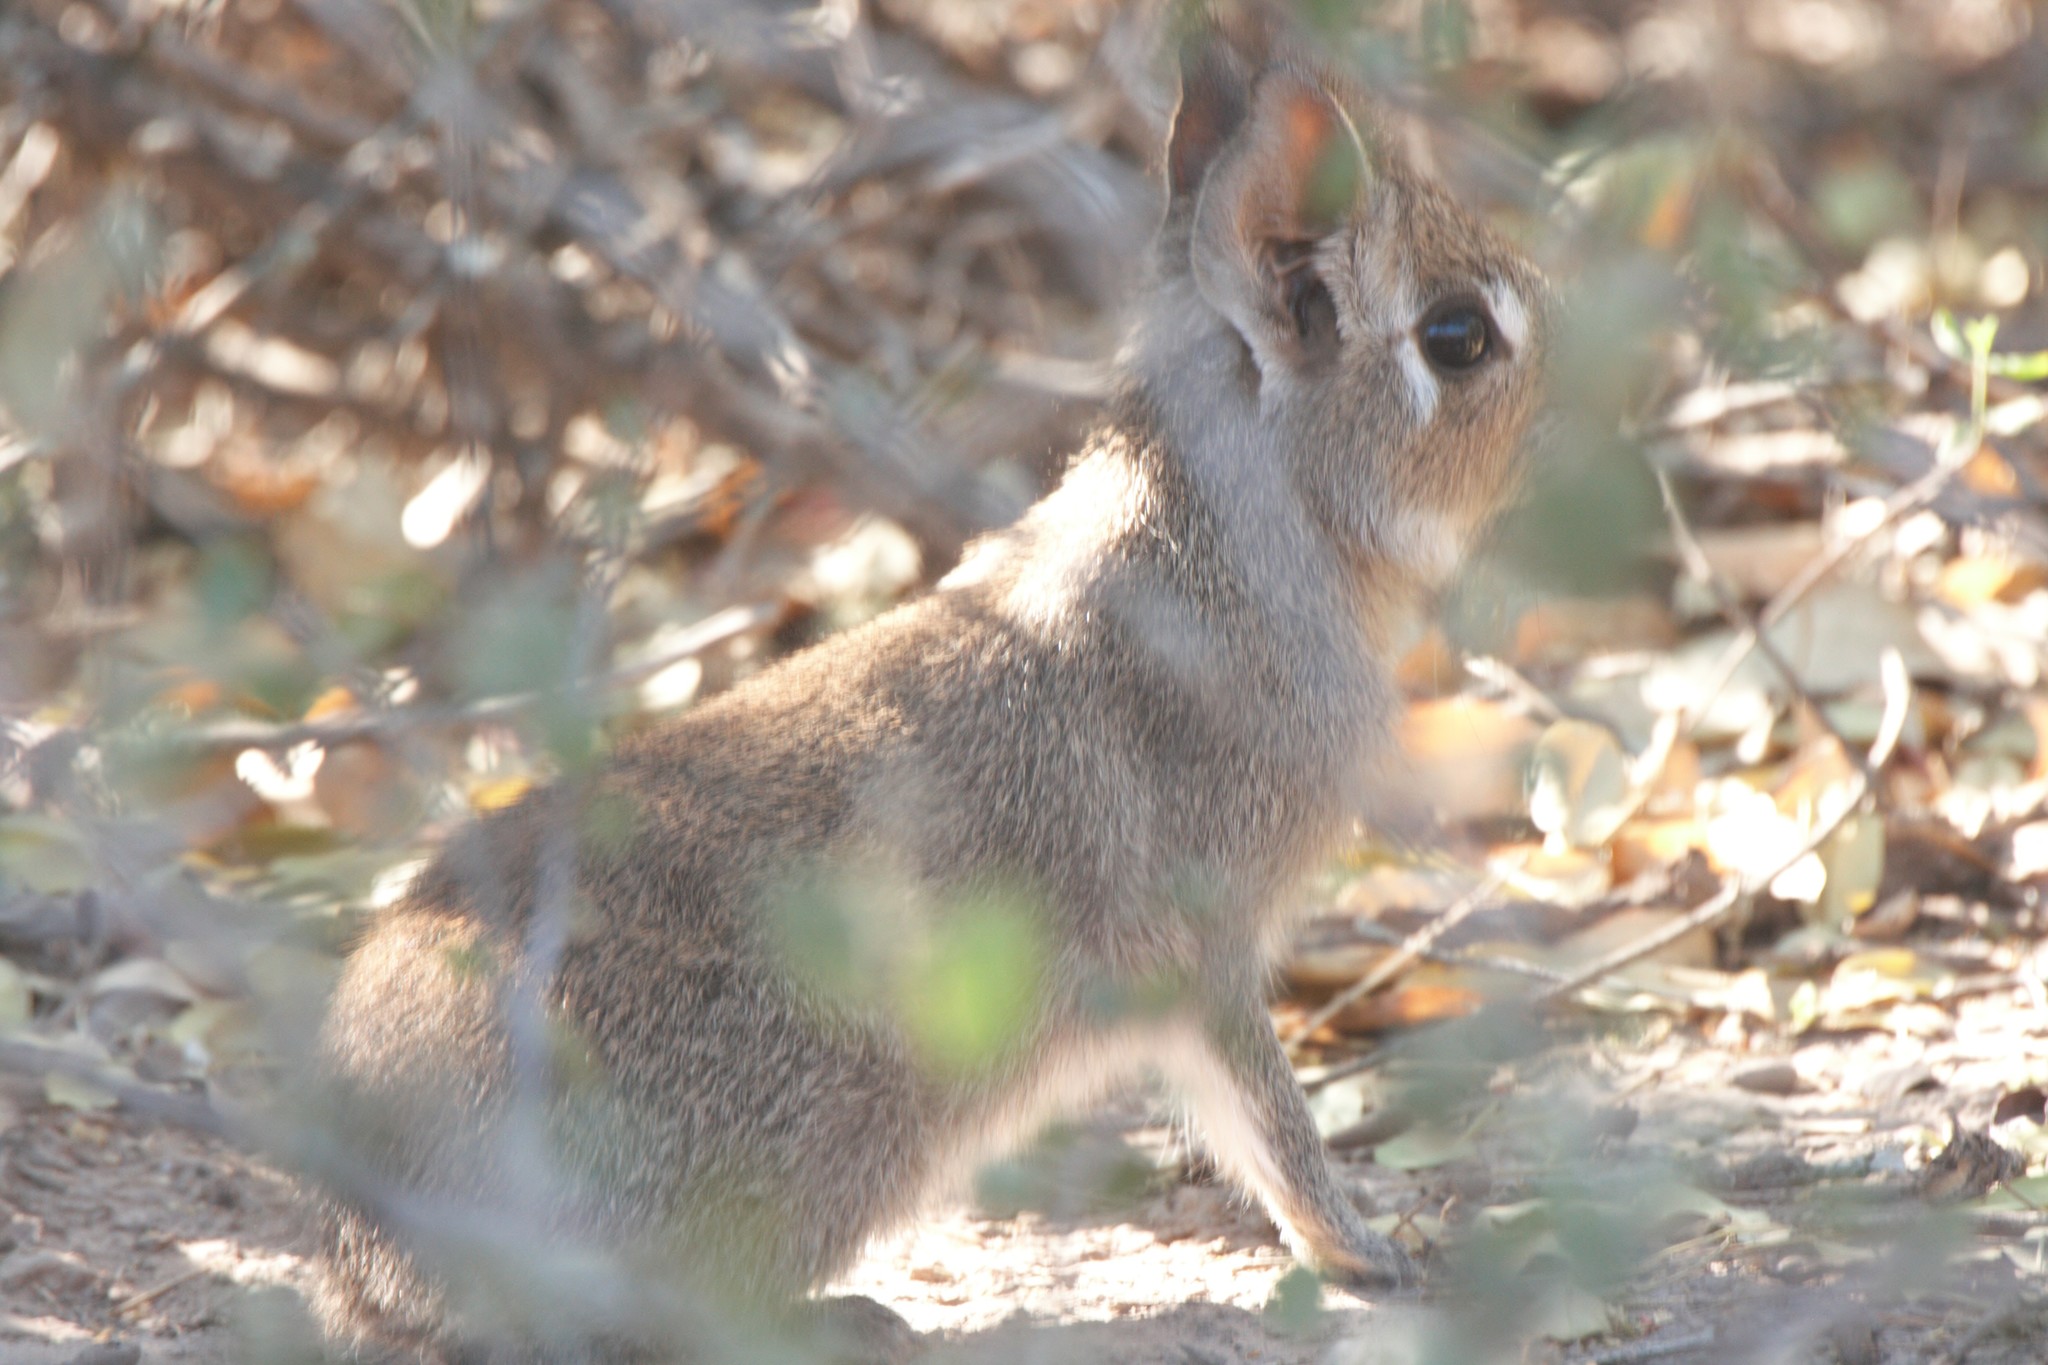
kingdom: Animalia
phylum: Chordata
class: Mammalia
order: Rodentia
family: Caviidae
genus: Dolichotis
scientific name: Dolichotis Pediolagus salinicola
